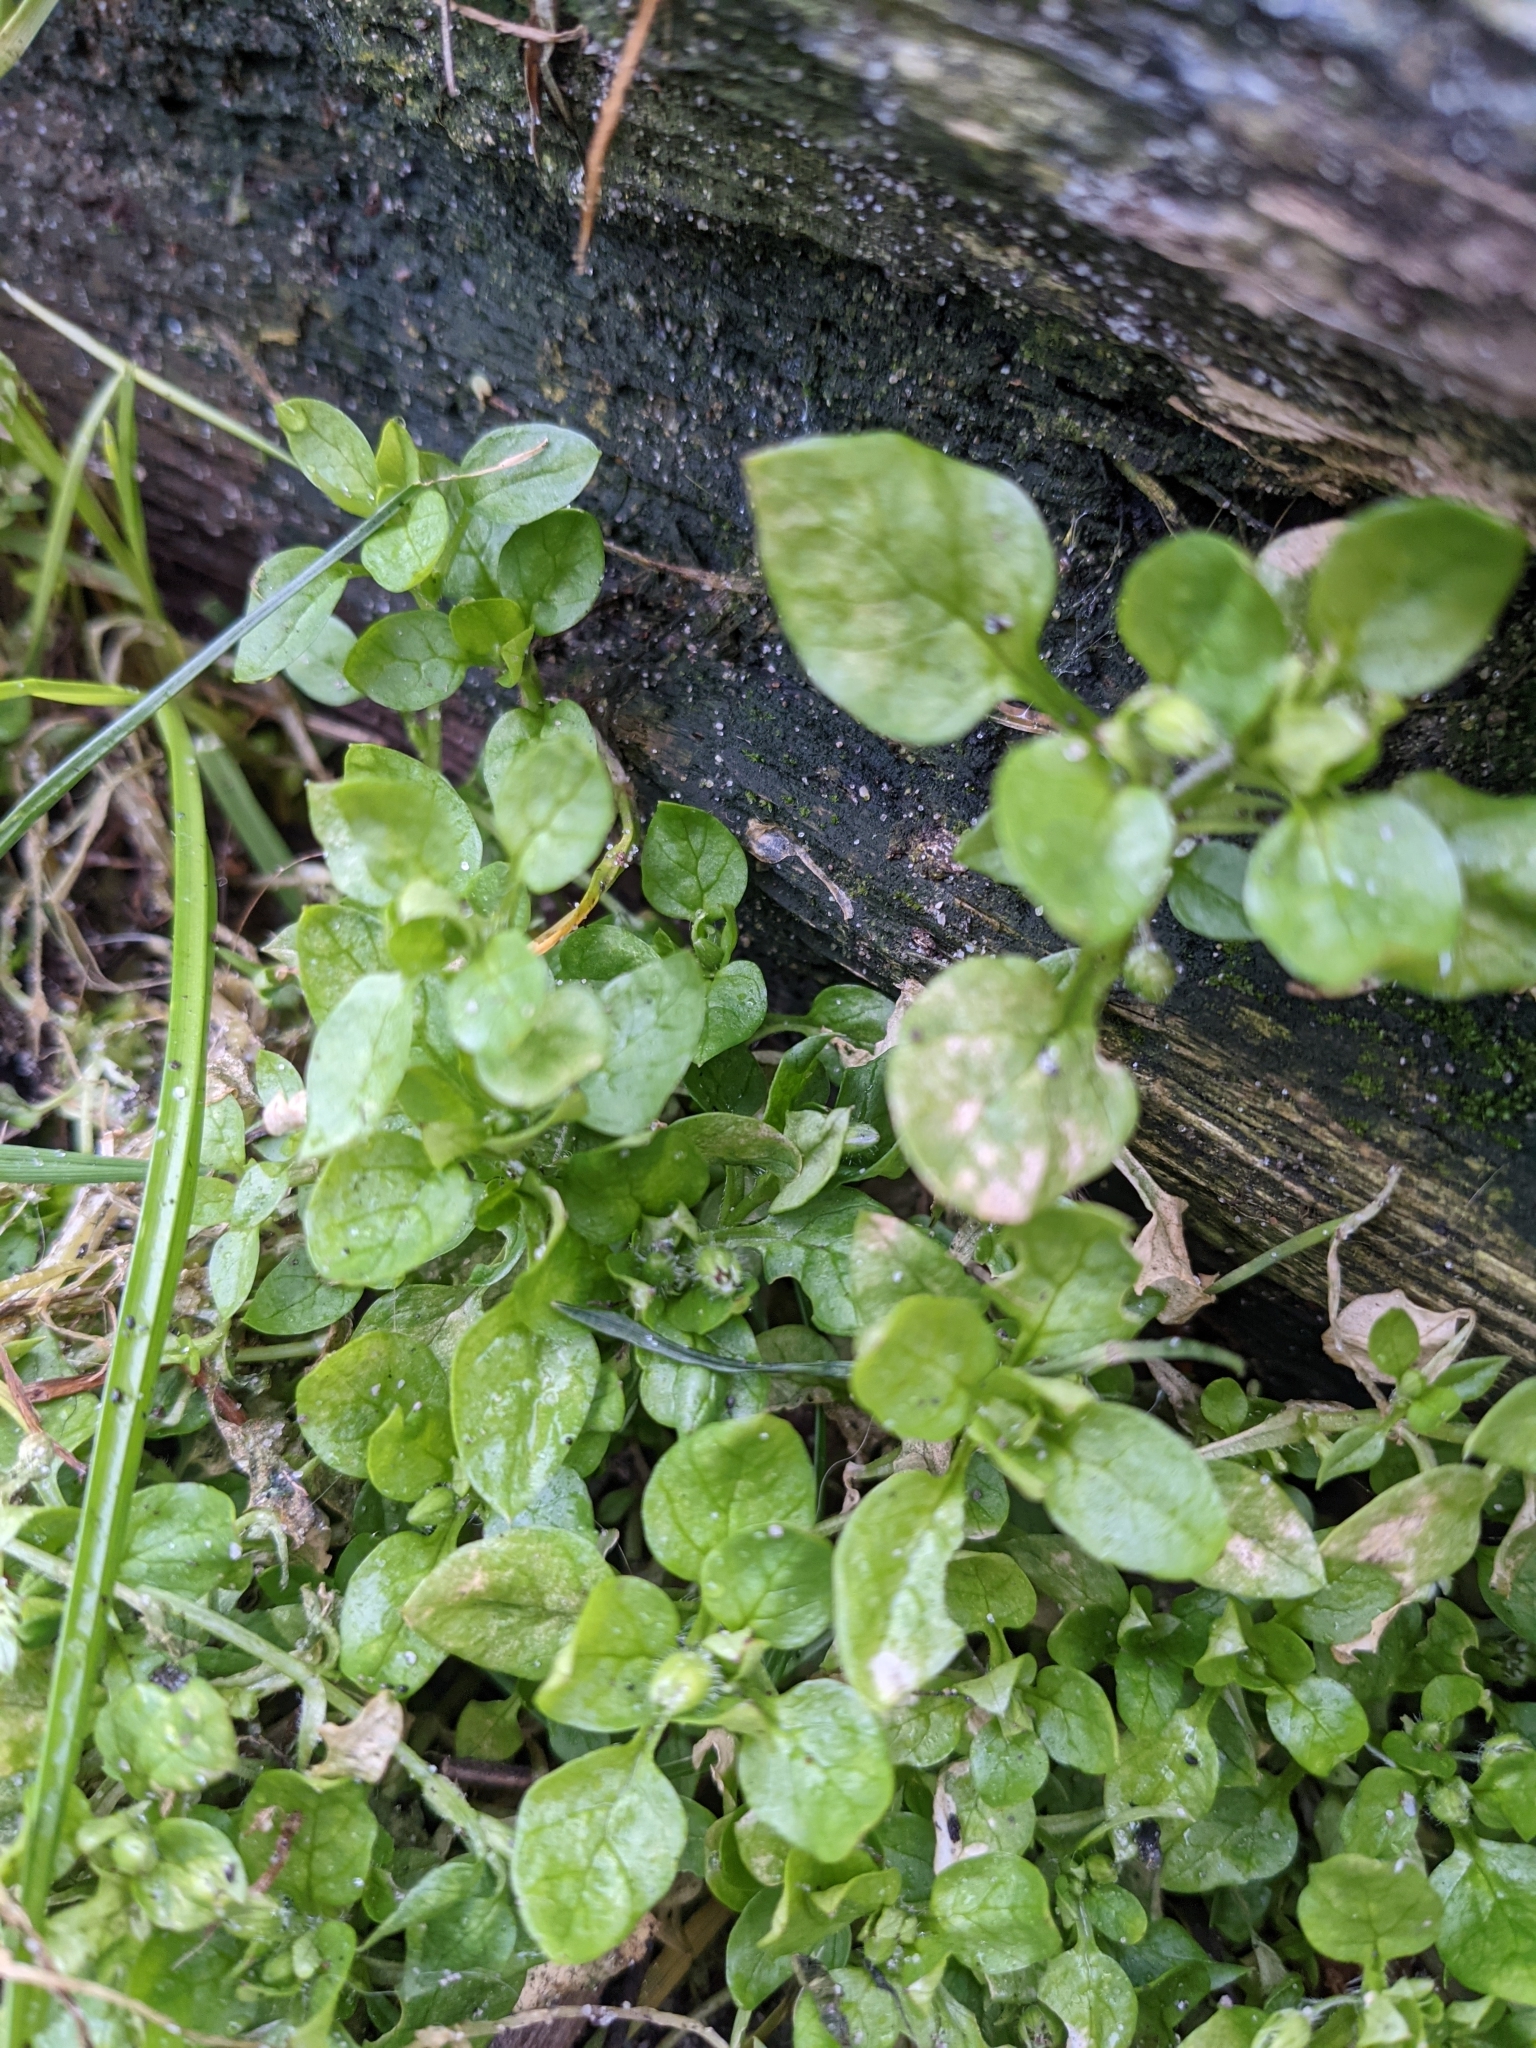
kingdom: Plantae
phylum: Tracheophyta
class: Magnoliopsida
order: Caryophyllales
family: Caryophyllaceae
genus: Stellaria
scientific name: Stellaria media
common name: Common chickweed
